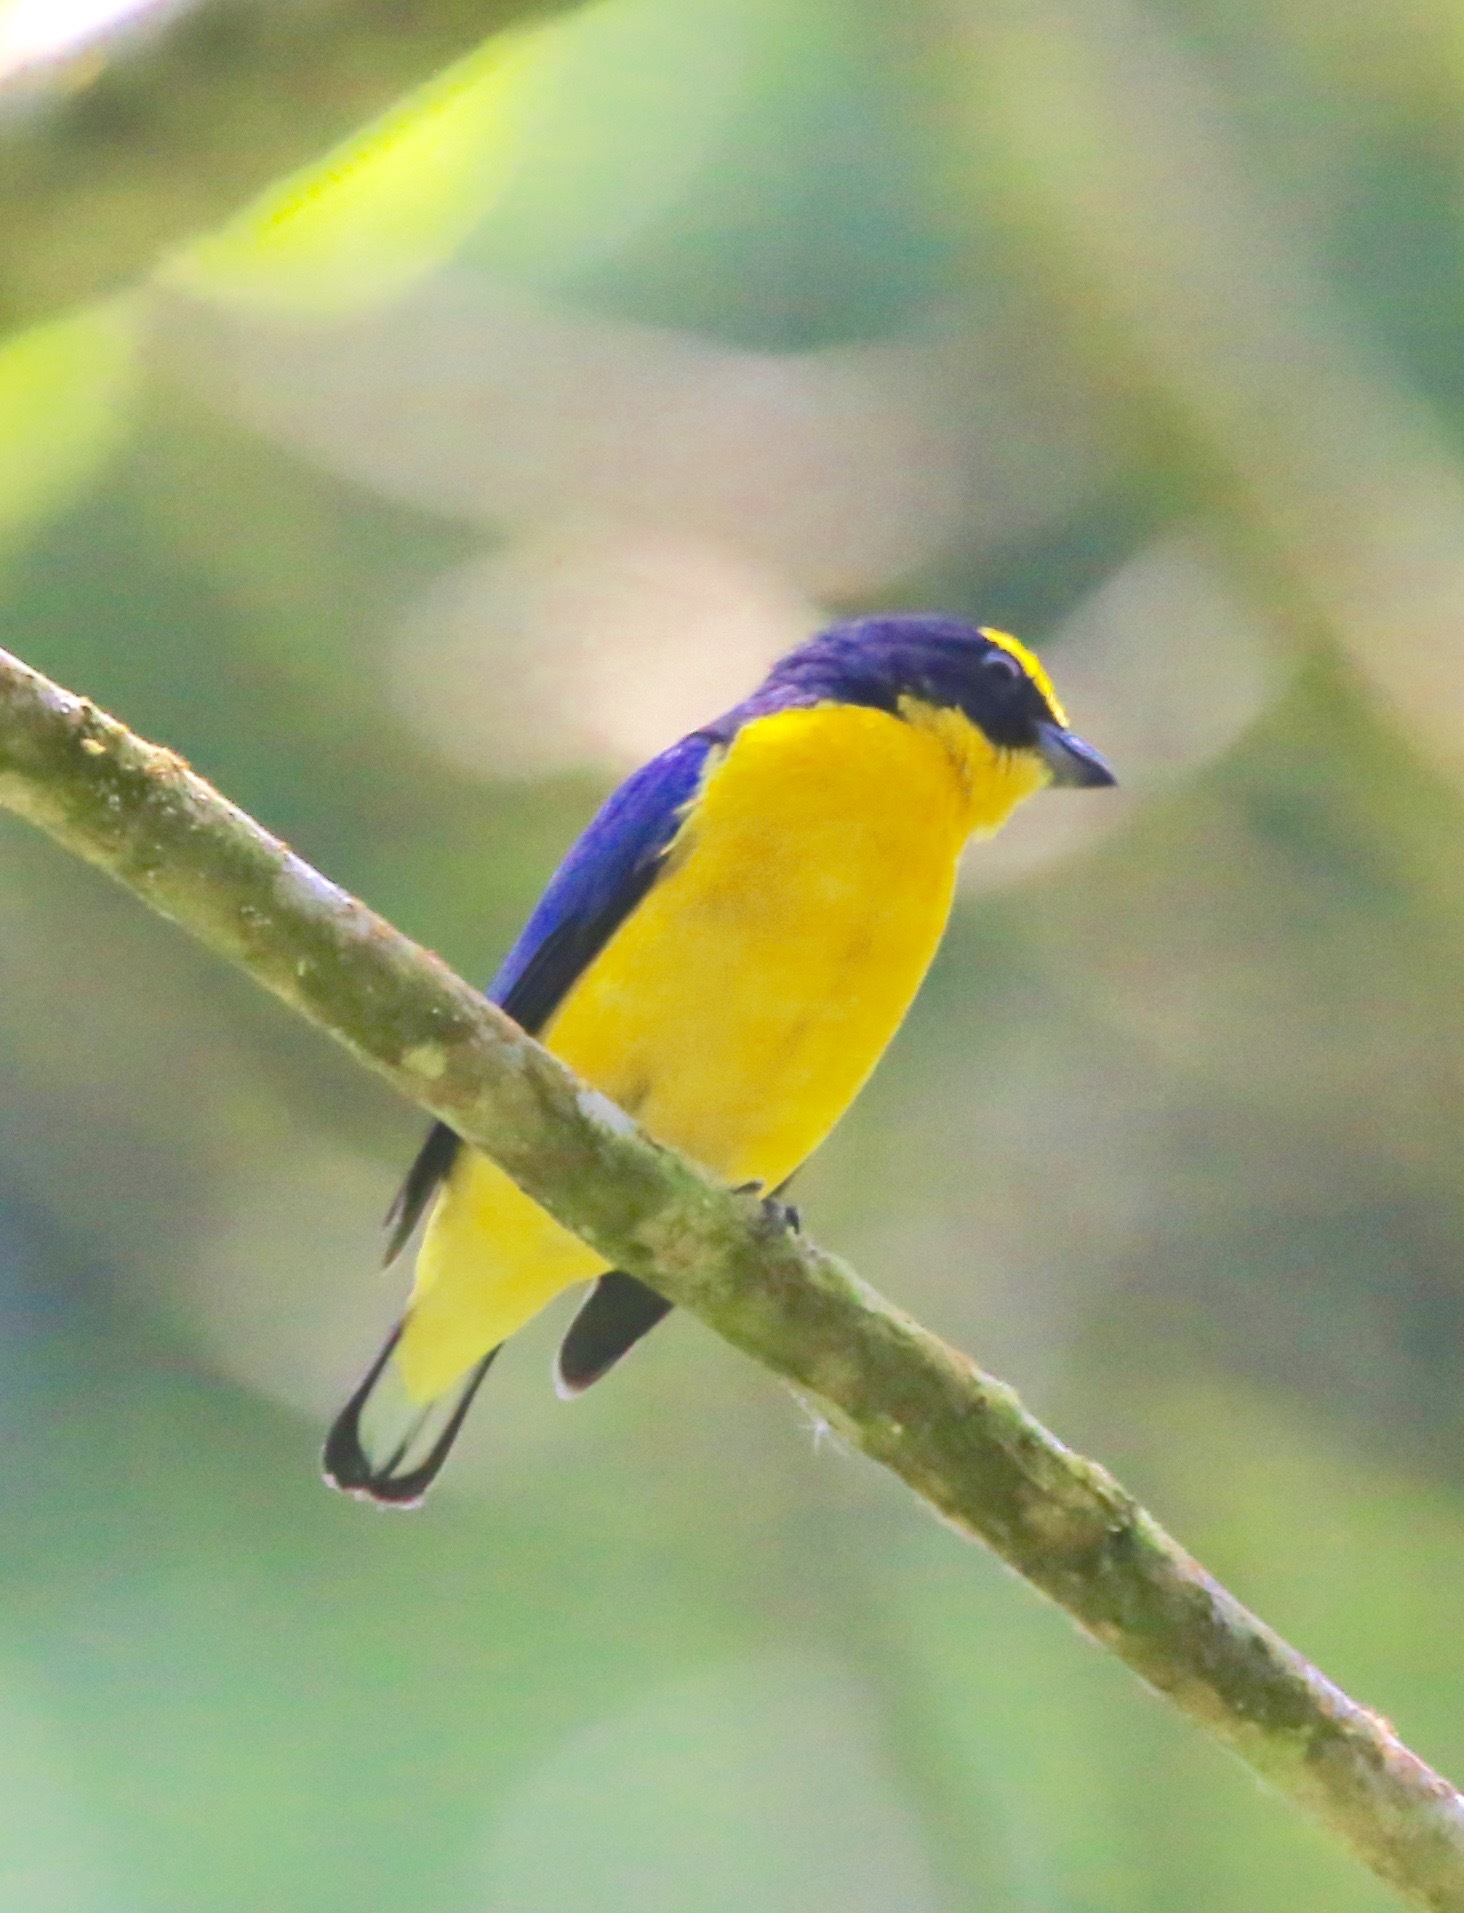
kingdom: Animalia
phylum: Chordata
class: Aves
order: Passeriformes
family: Fringillidae
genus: Euphonia
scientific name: Euphonia laniirostris
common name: Thick-billed euphonia
